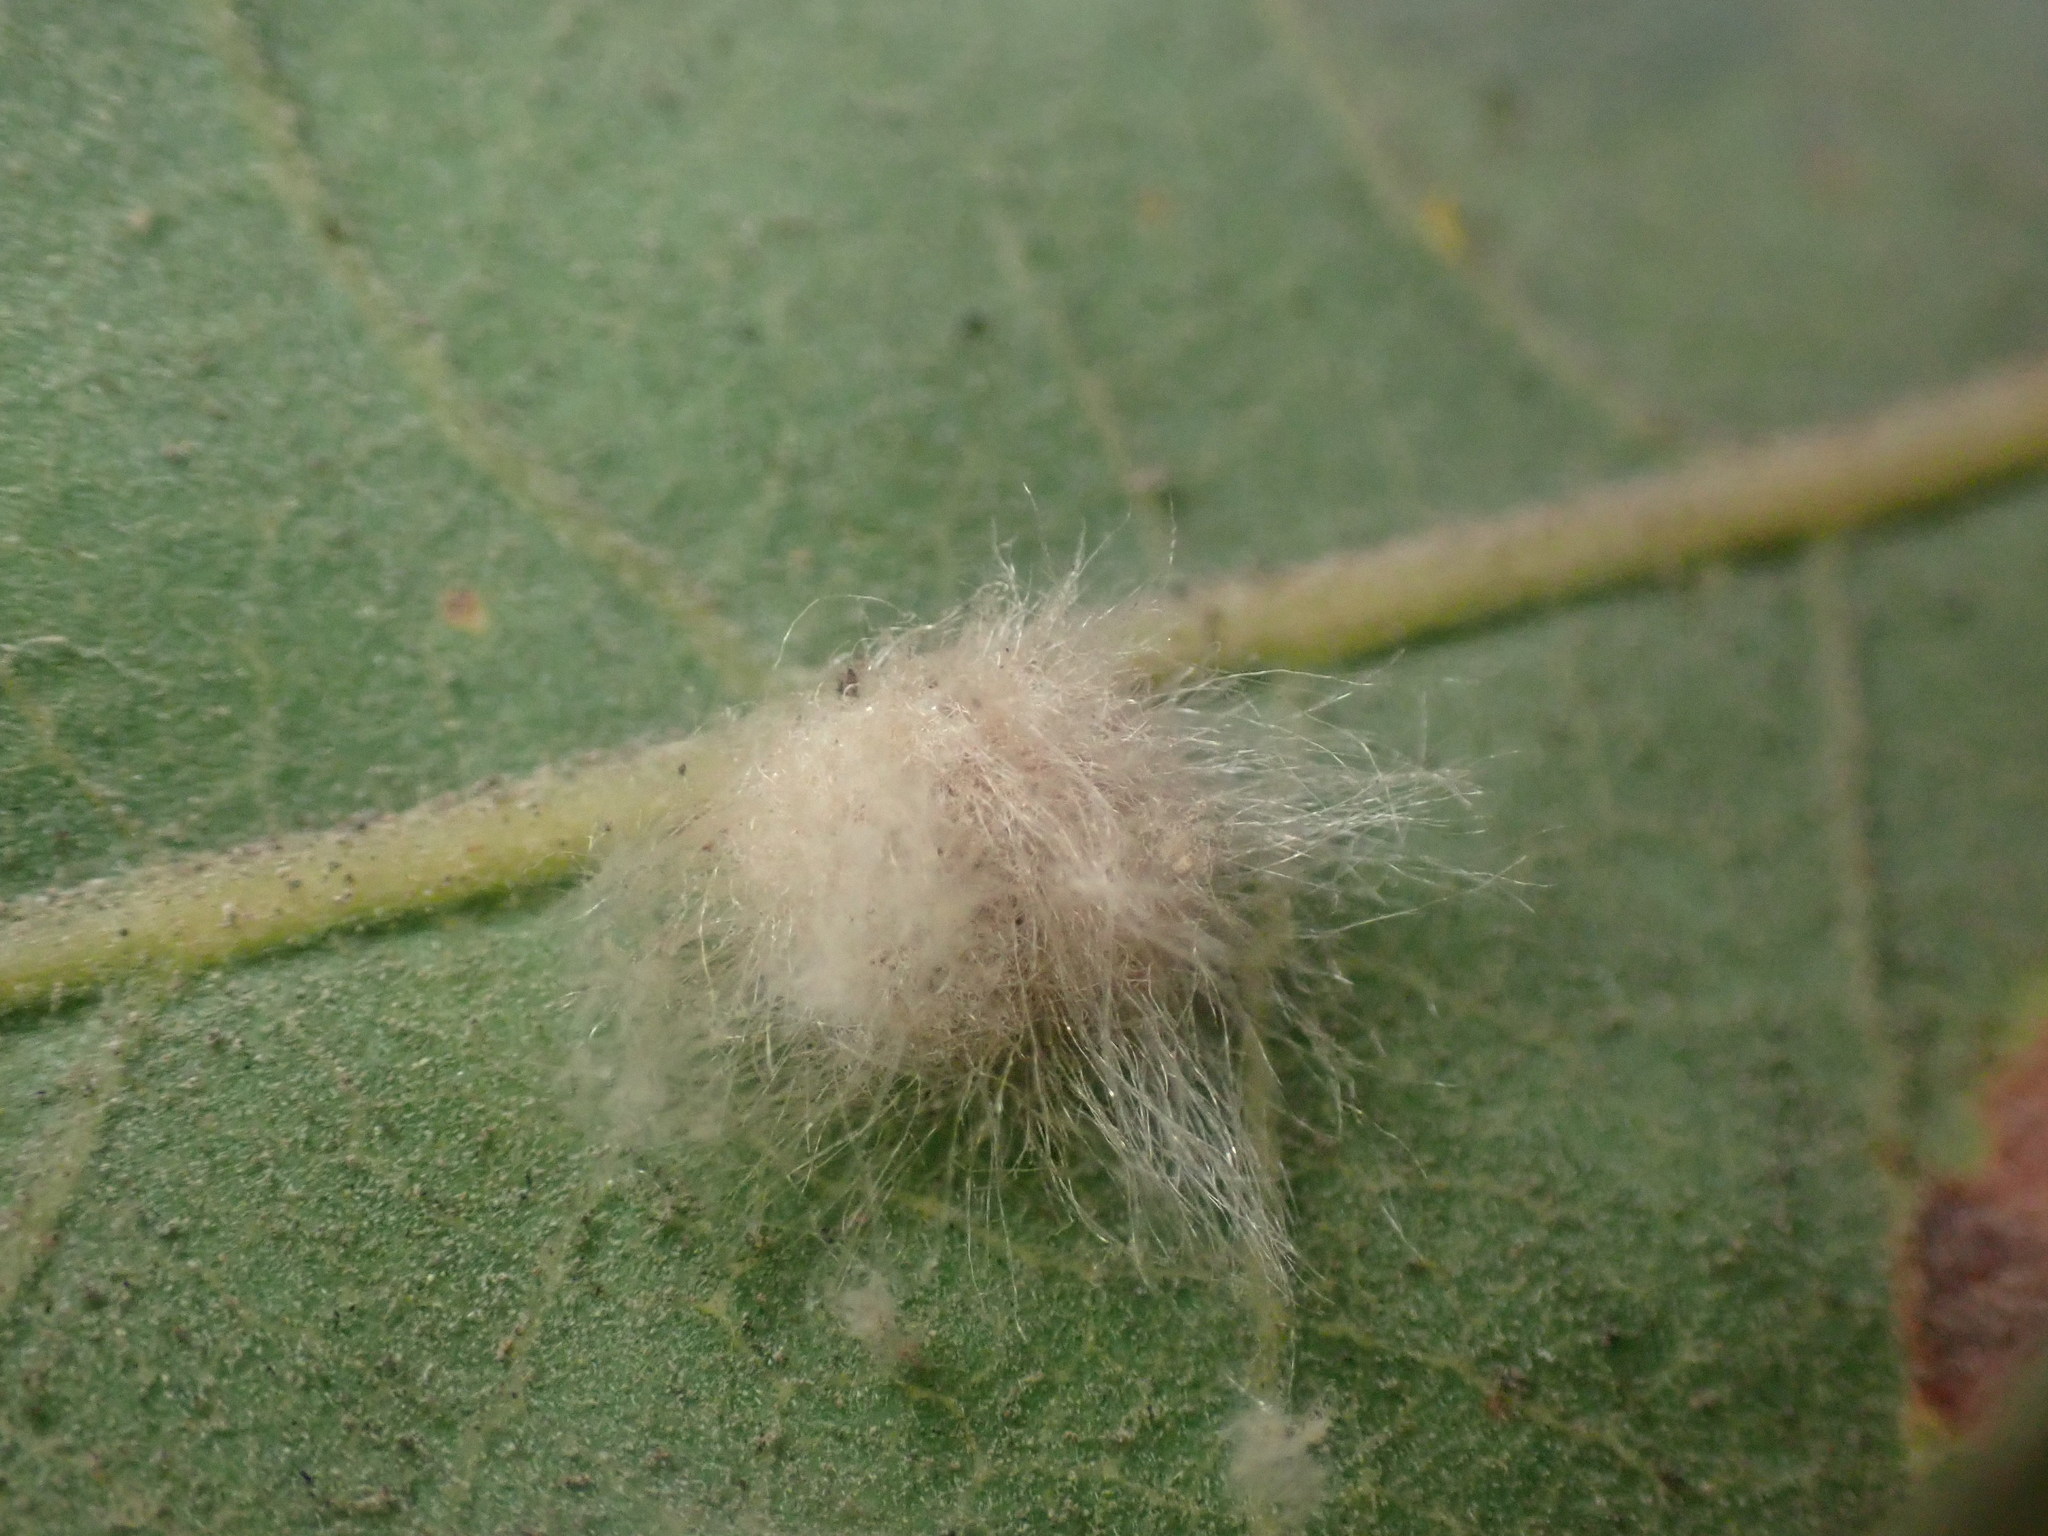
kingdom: Animalia
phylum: Arthropoda
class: Insecta
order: Hymenoptera
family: Cynipidae
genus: Andricus
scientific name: Andricus Druon fullawayi
